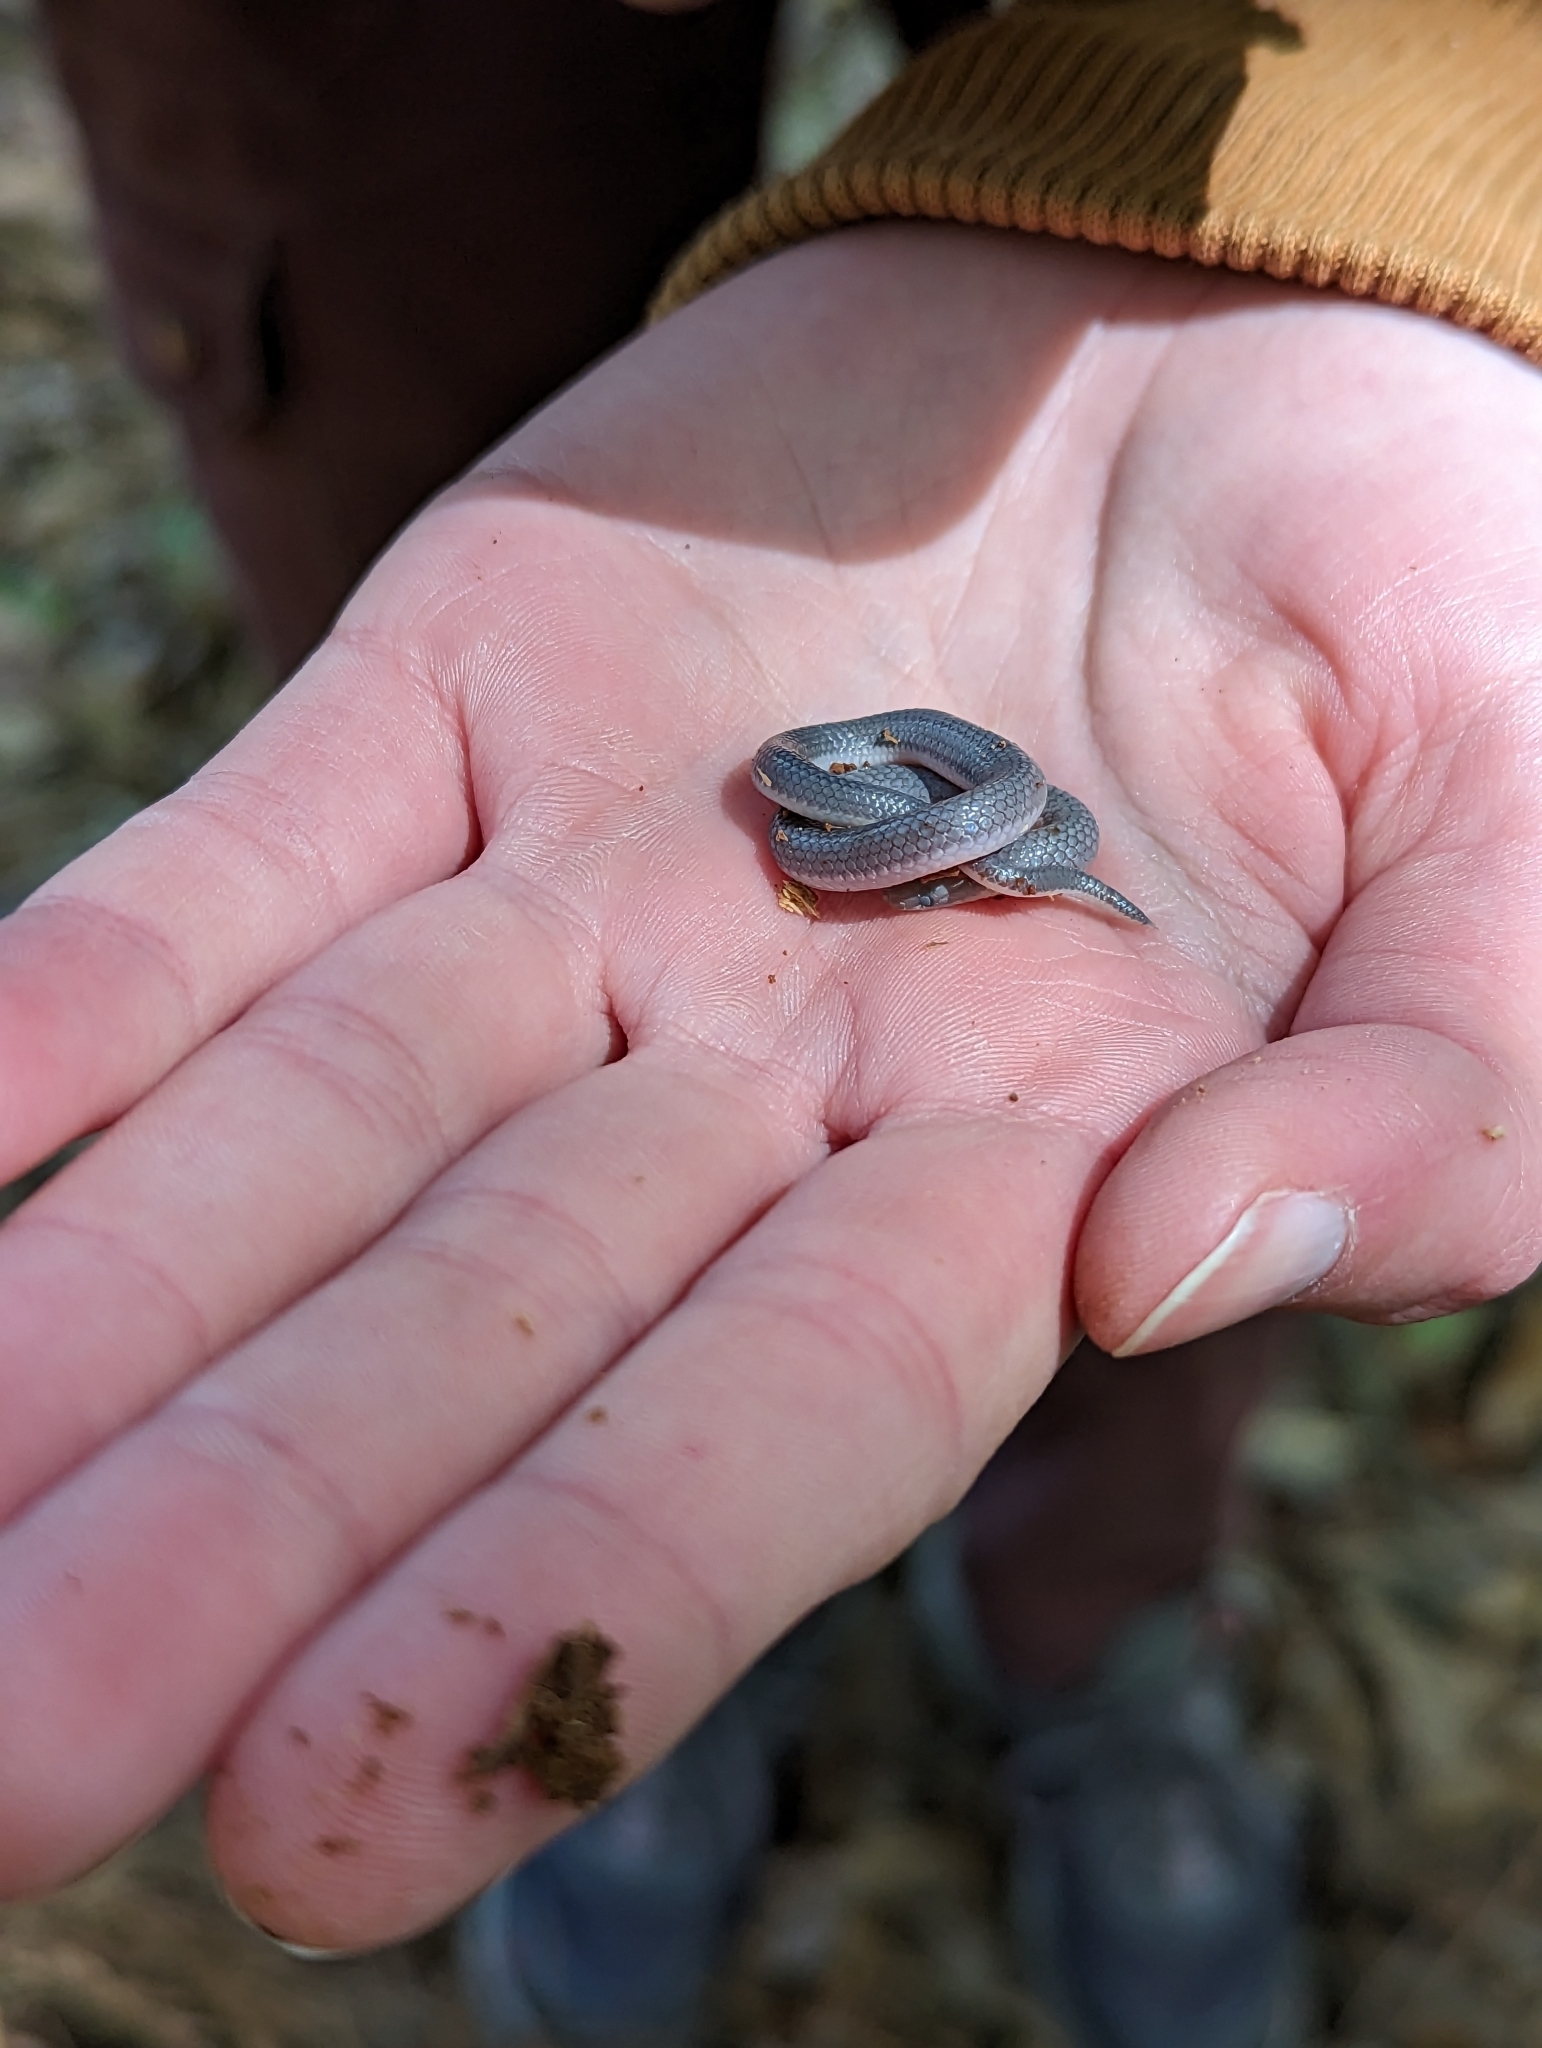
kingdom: Animalia
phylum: Chordata
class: Squamata
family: Colubridae
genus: Carphophis
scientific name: Carphophis amoenus
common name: Eastern worm snake
